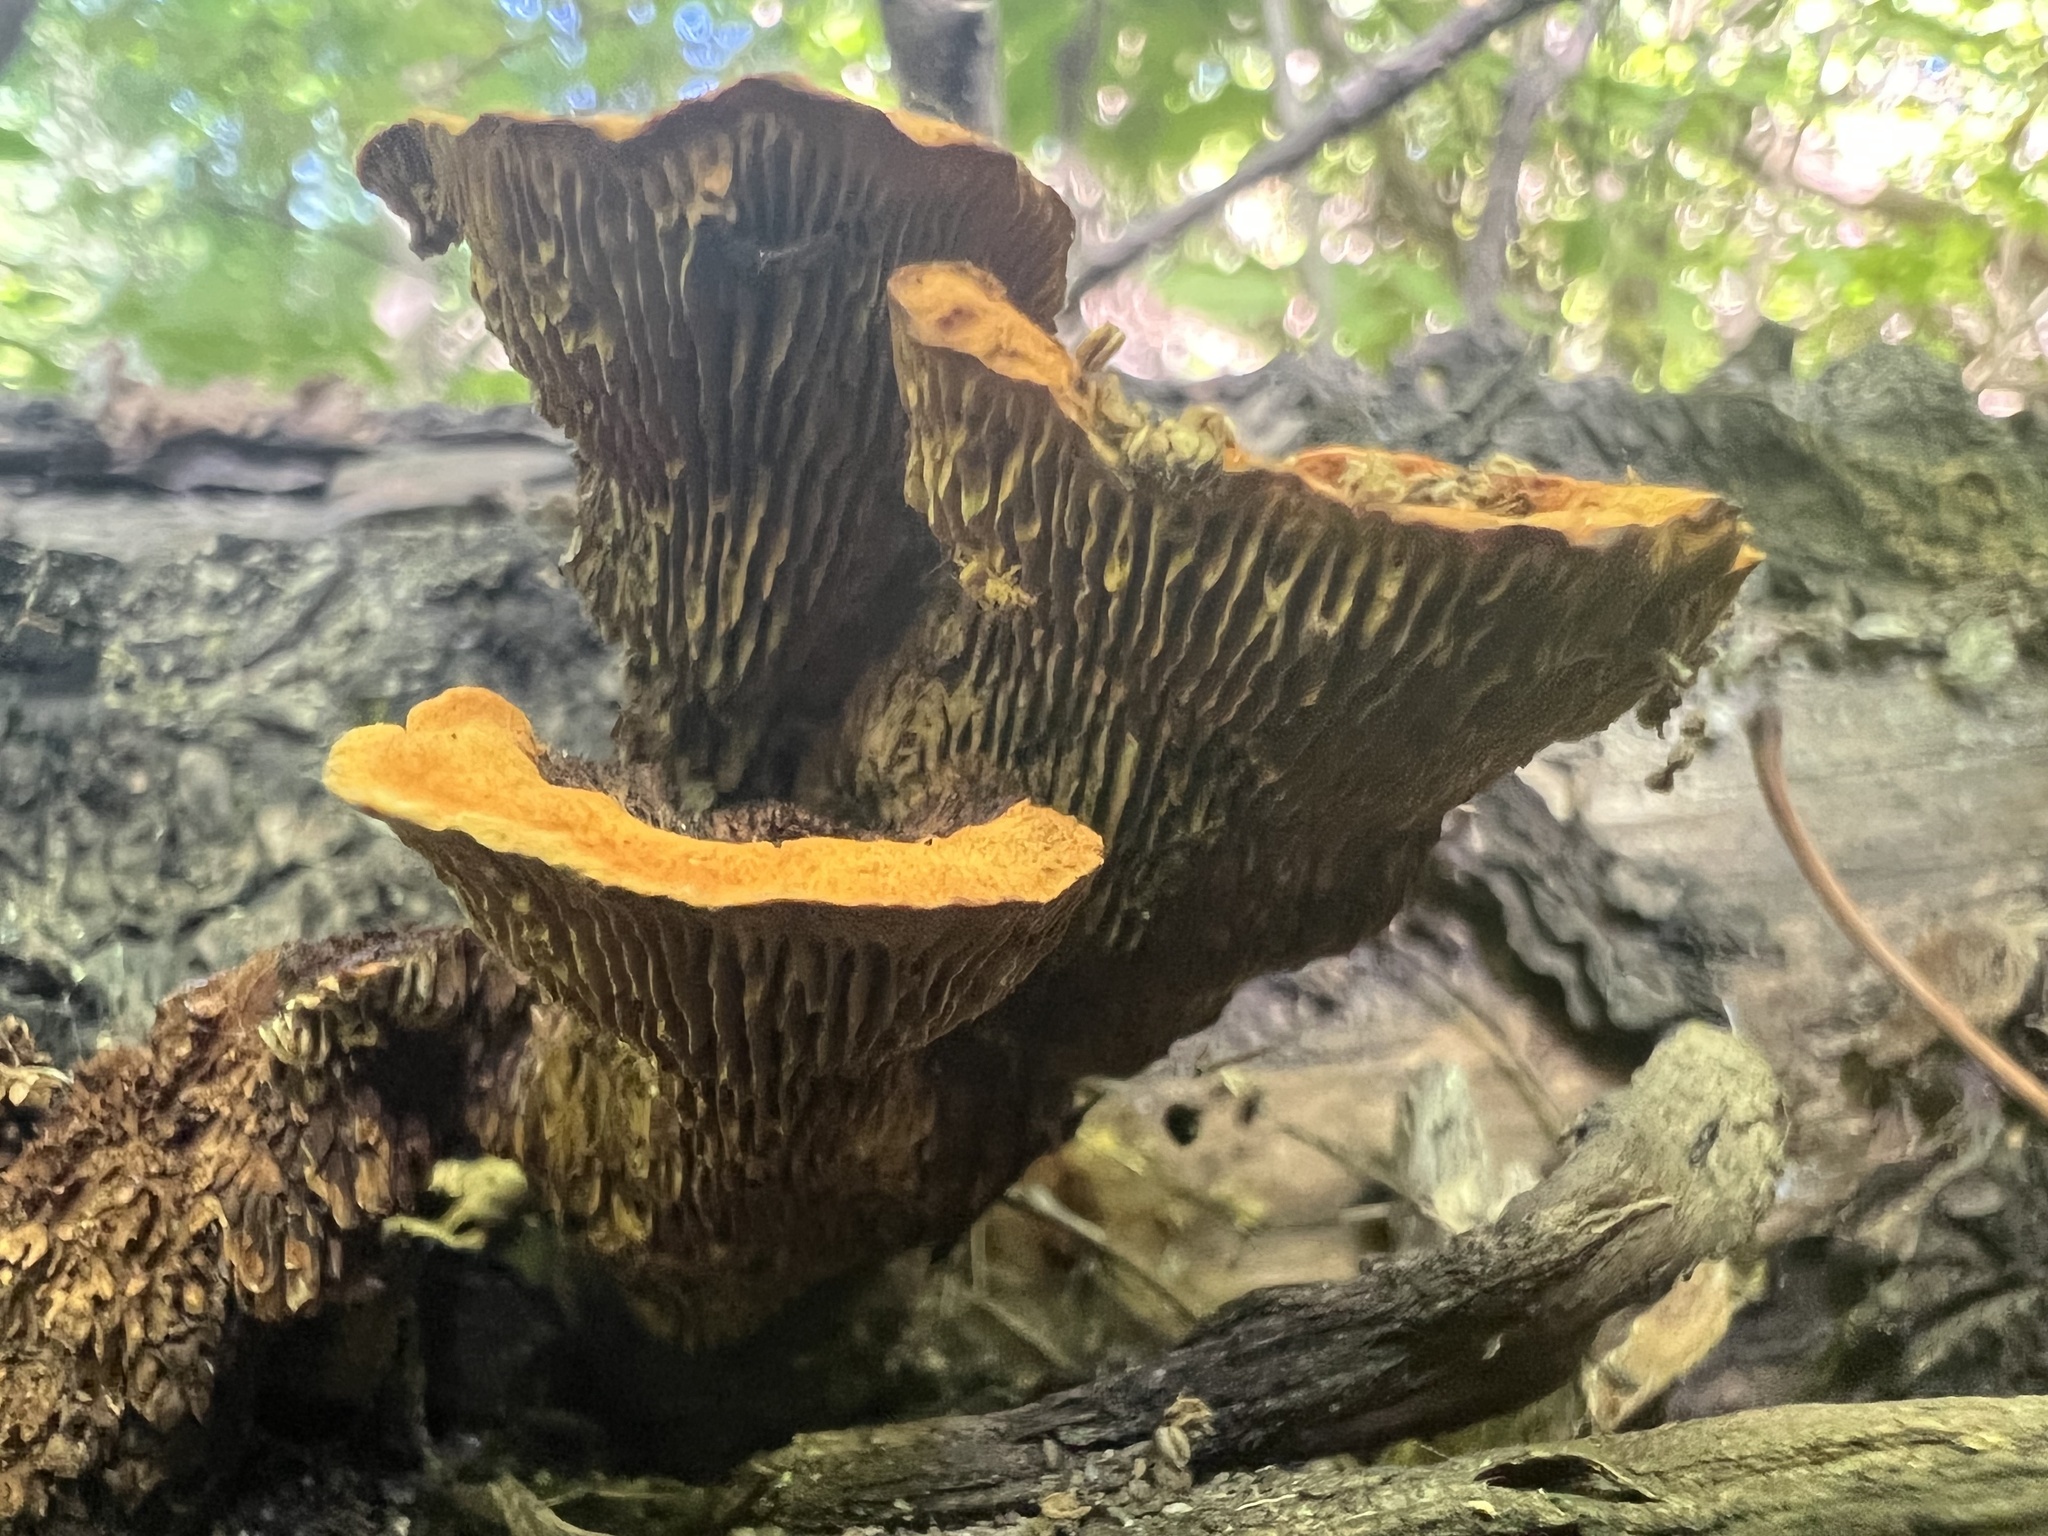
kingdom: Fungi
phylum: Basidiomycota
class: Agaricomycetes
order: Gloeophyllales
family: Gloeophyllaceae
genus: Gloeophyllum
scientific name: Gloeophyllum sepiarium
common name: Conifer mazegill
